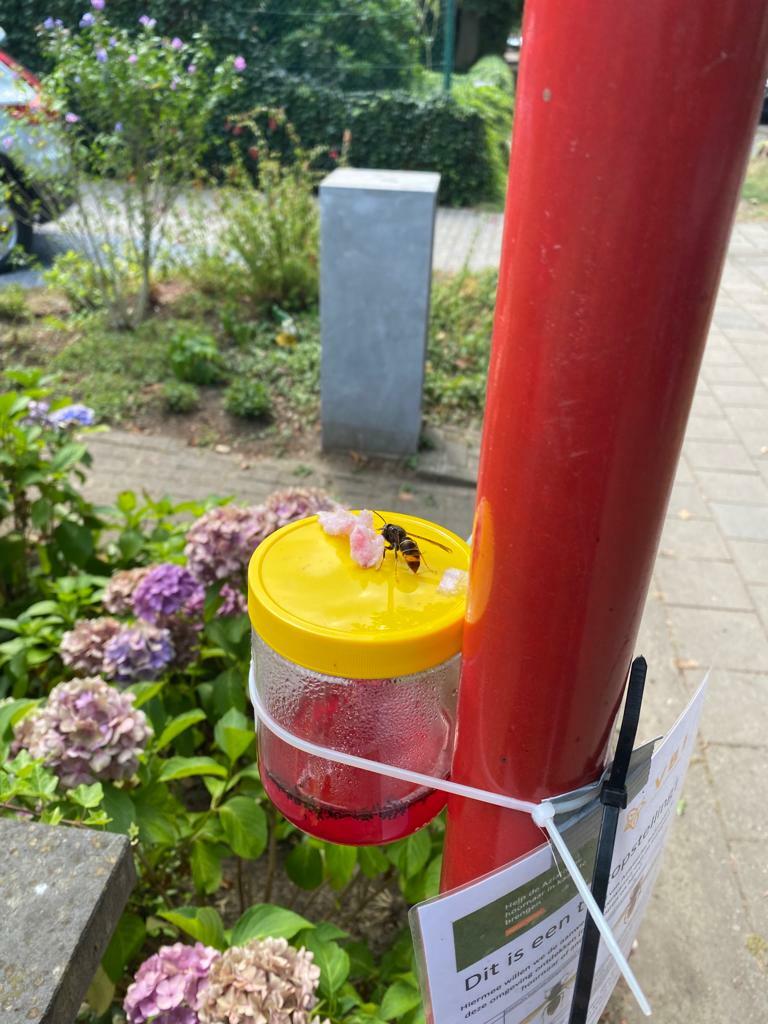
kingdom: Animalia
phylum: Arthropoda
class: Insecta
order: Hymenoptera
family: Vespidae
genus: Vespa
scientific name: Vespa velutina
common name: Asian hornet
